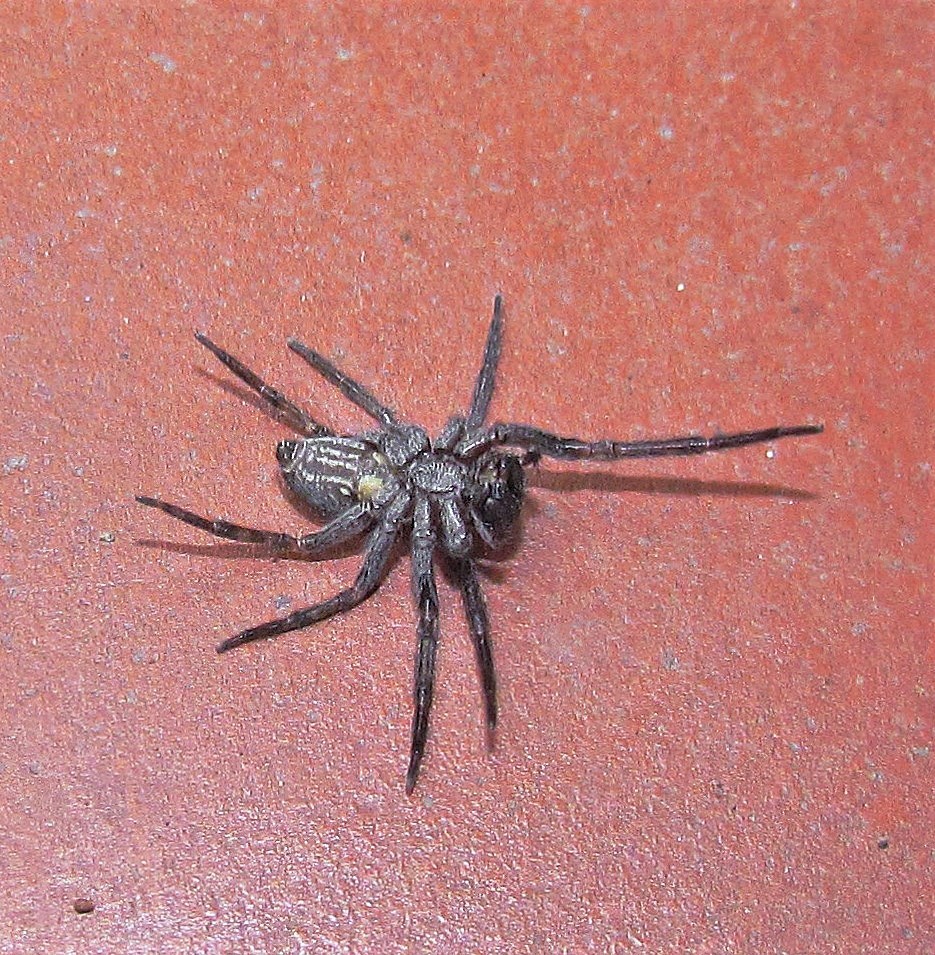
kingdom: Animalia
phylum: Arthropoda
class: Arachnida
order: Araneae
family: Desidae
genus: Badumna
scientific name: Badumna longinqua
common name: Gray house spider
